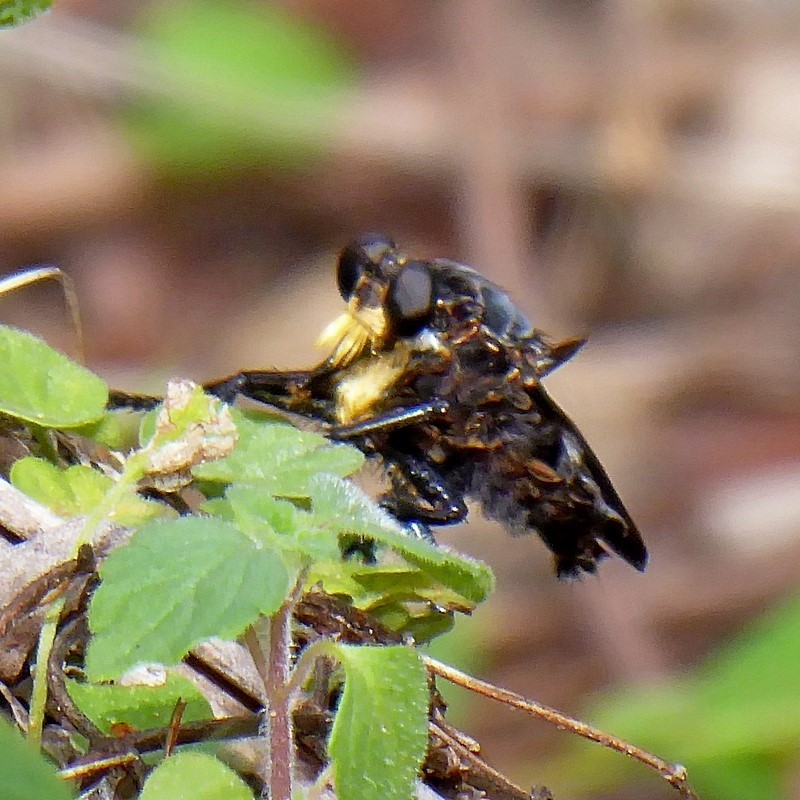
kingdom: Animalia
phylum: Arthropoda
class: Insecta
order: Diptera
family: Asilidae
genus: Blepharotes
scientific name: Blepharotes splendidissimus
